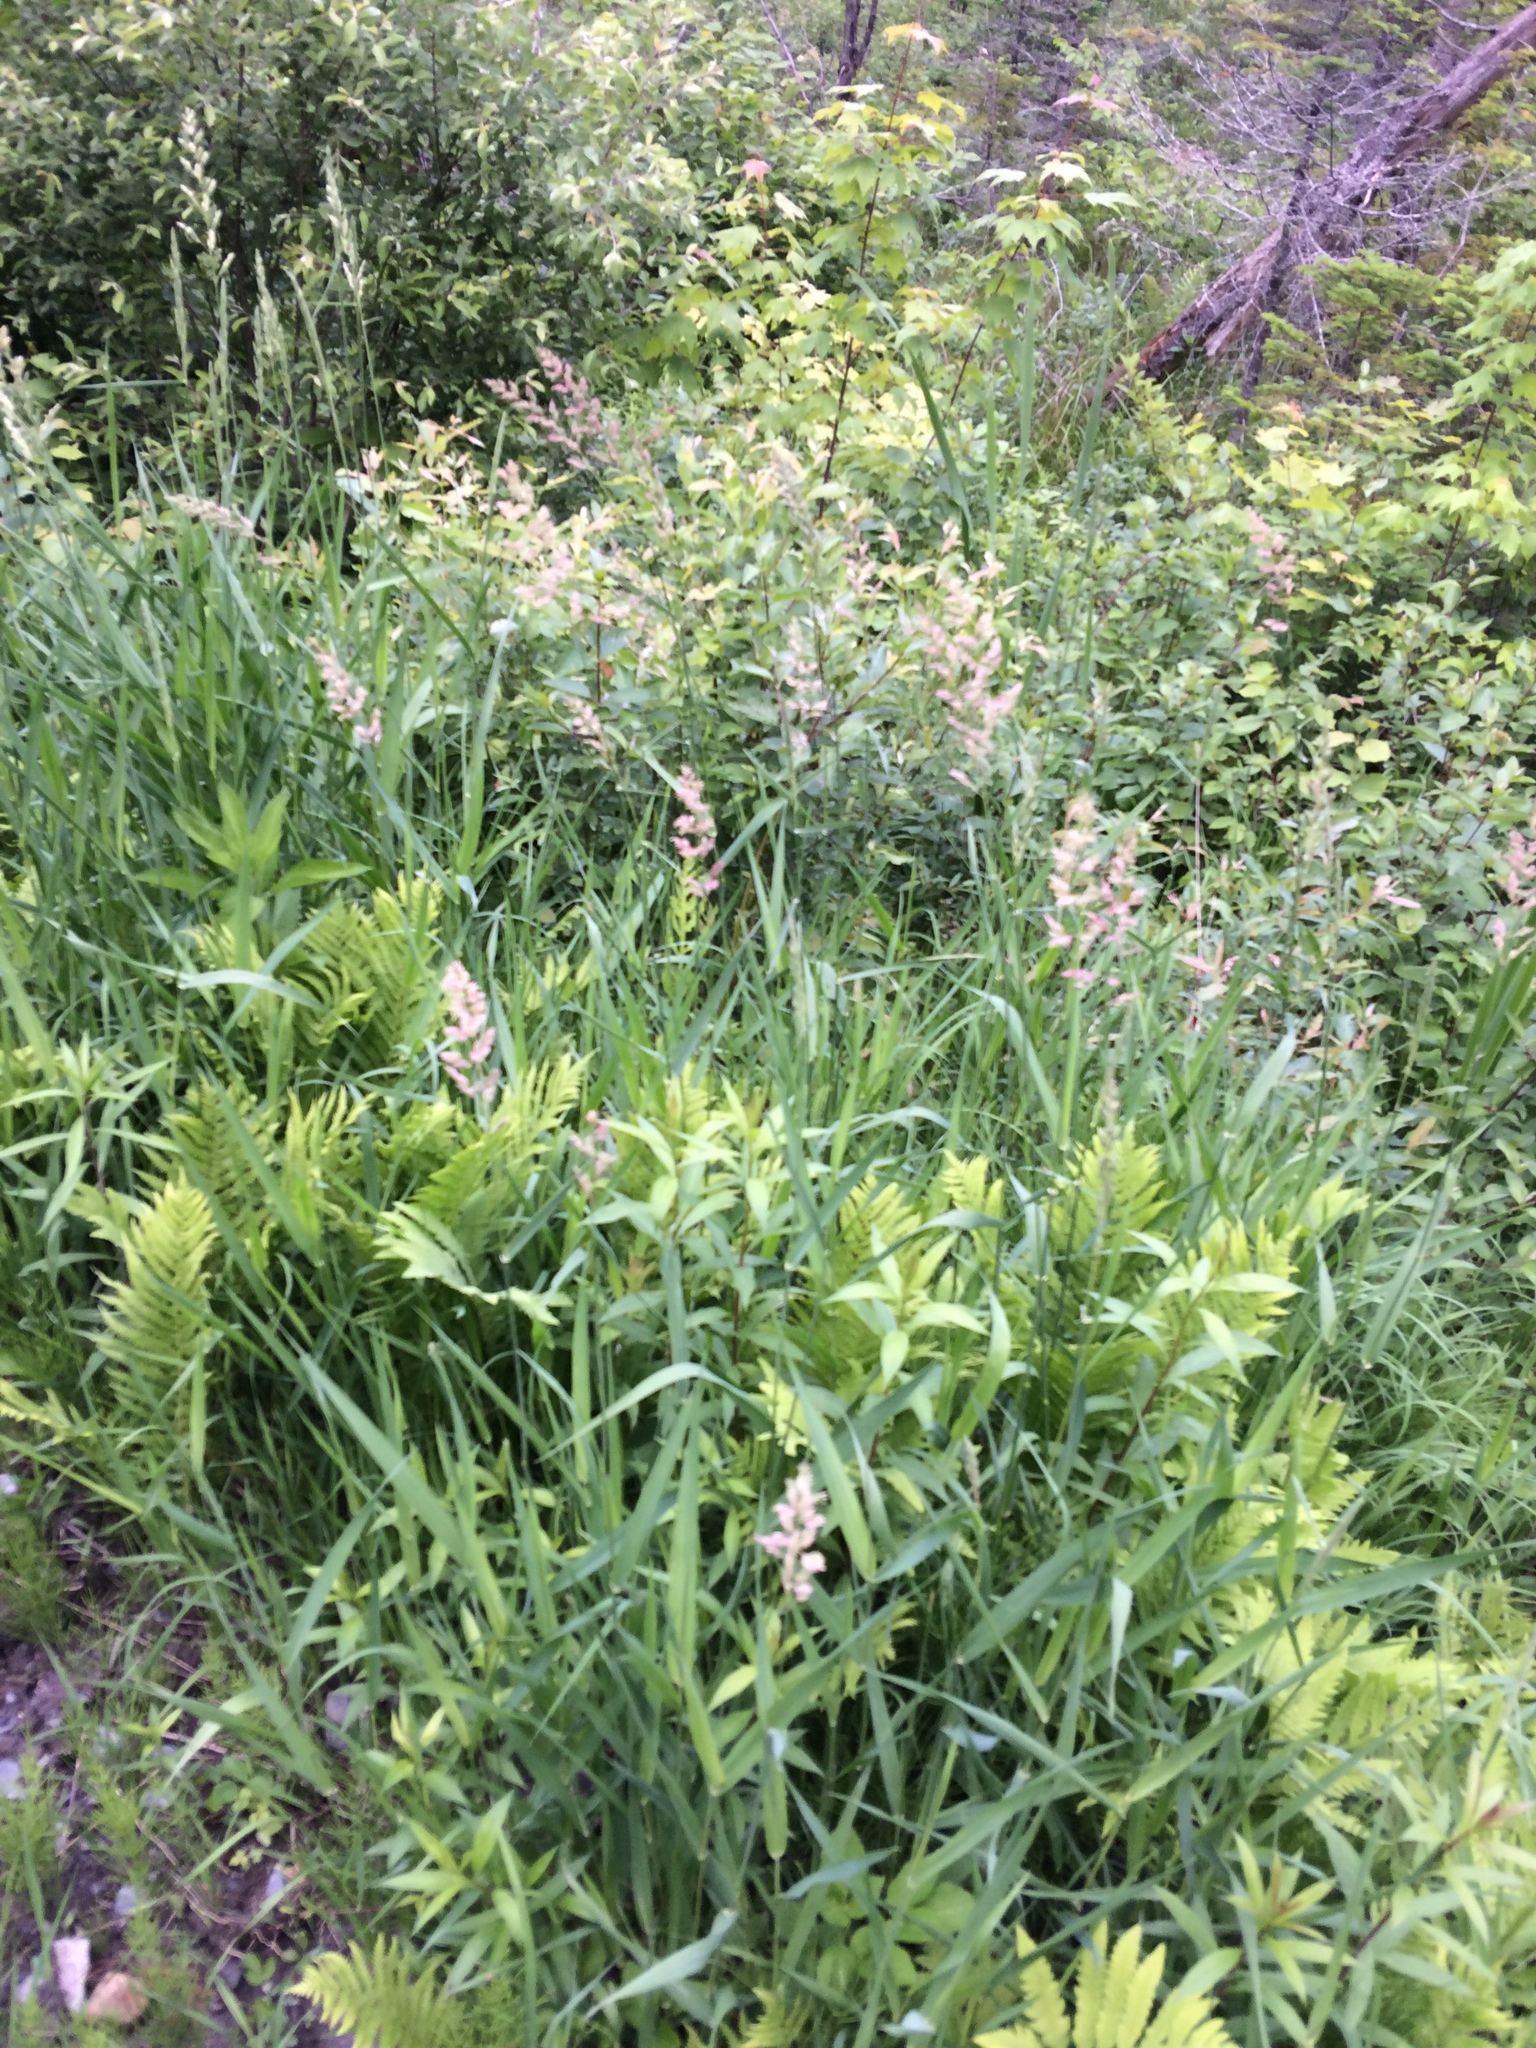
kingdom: Plantae
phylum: Tracheophyta
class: Liliopsida
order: Poales
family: Poaceae
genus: Phalaris
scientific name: Phalaris arundinacea
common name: Reed canary-grass
